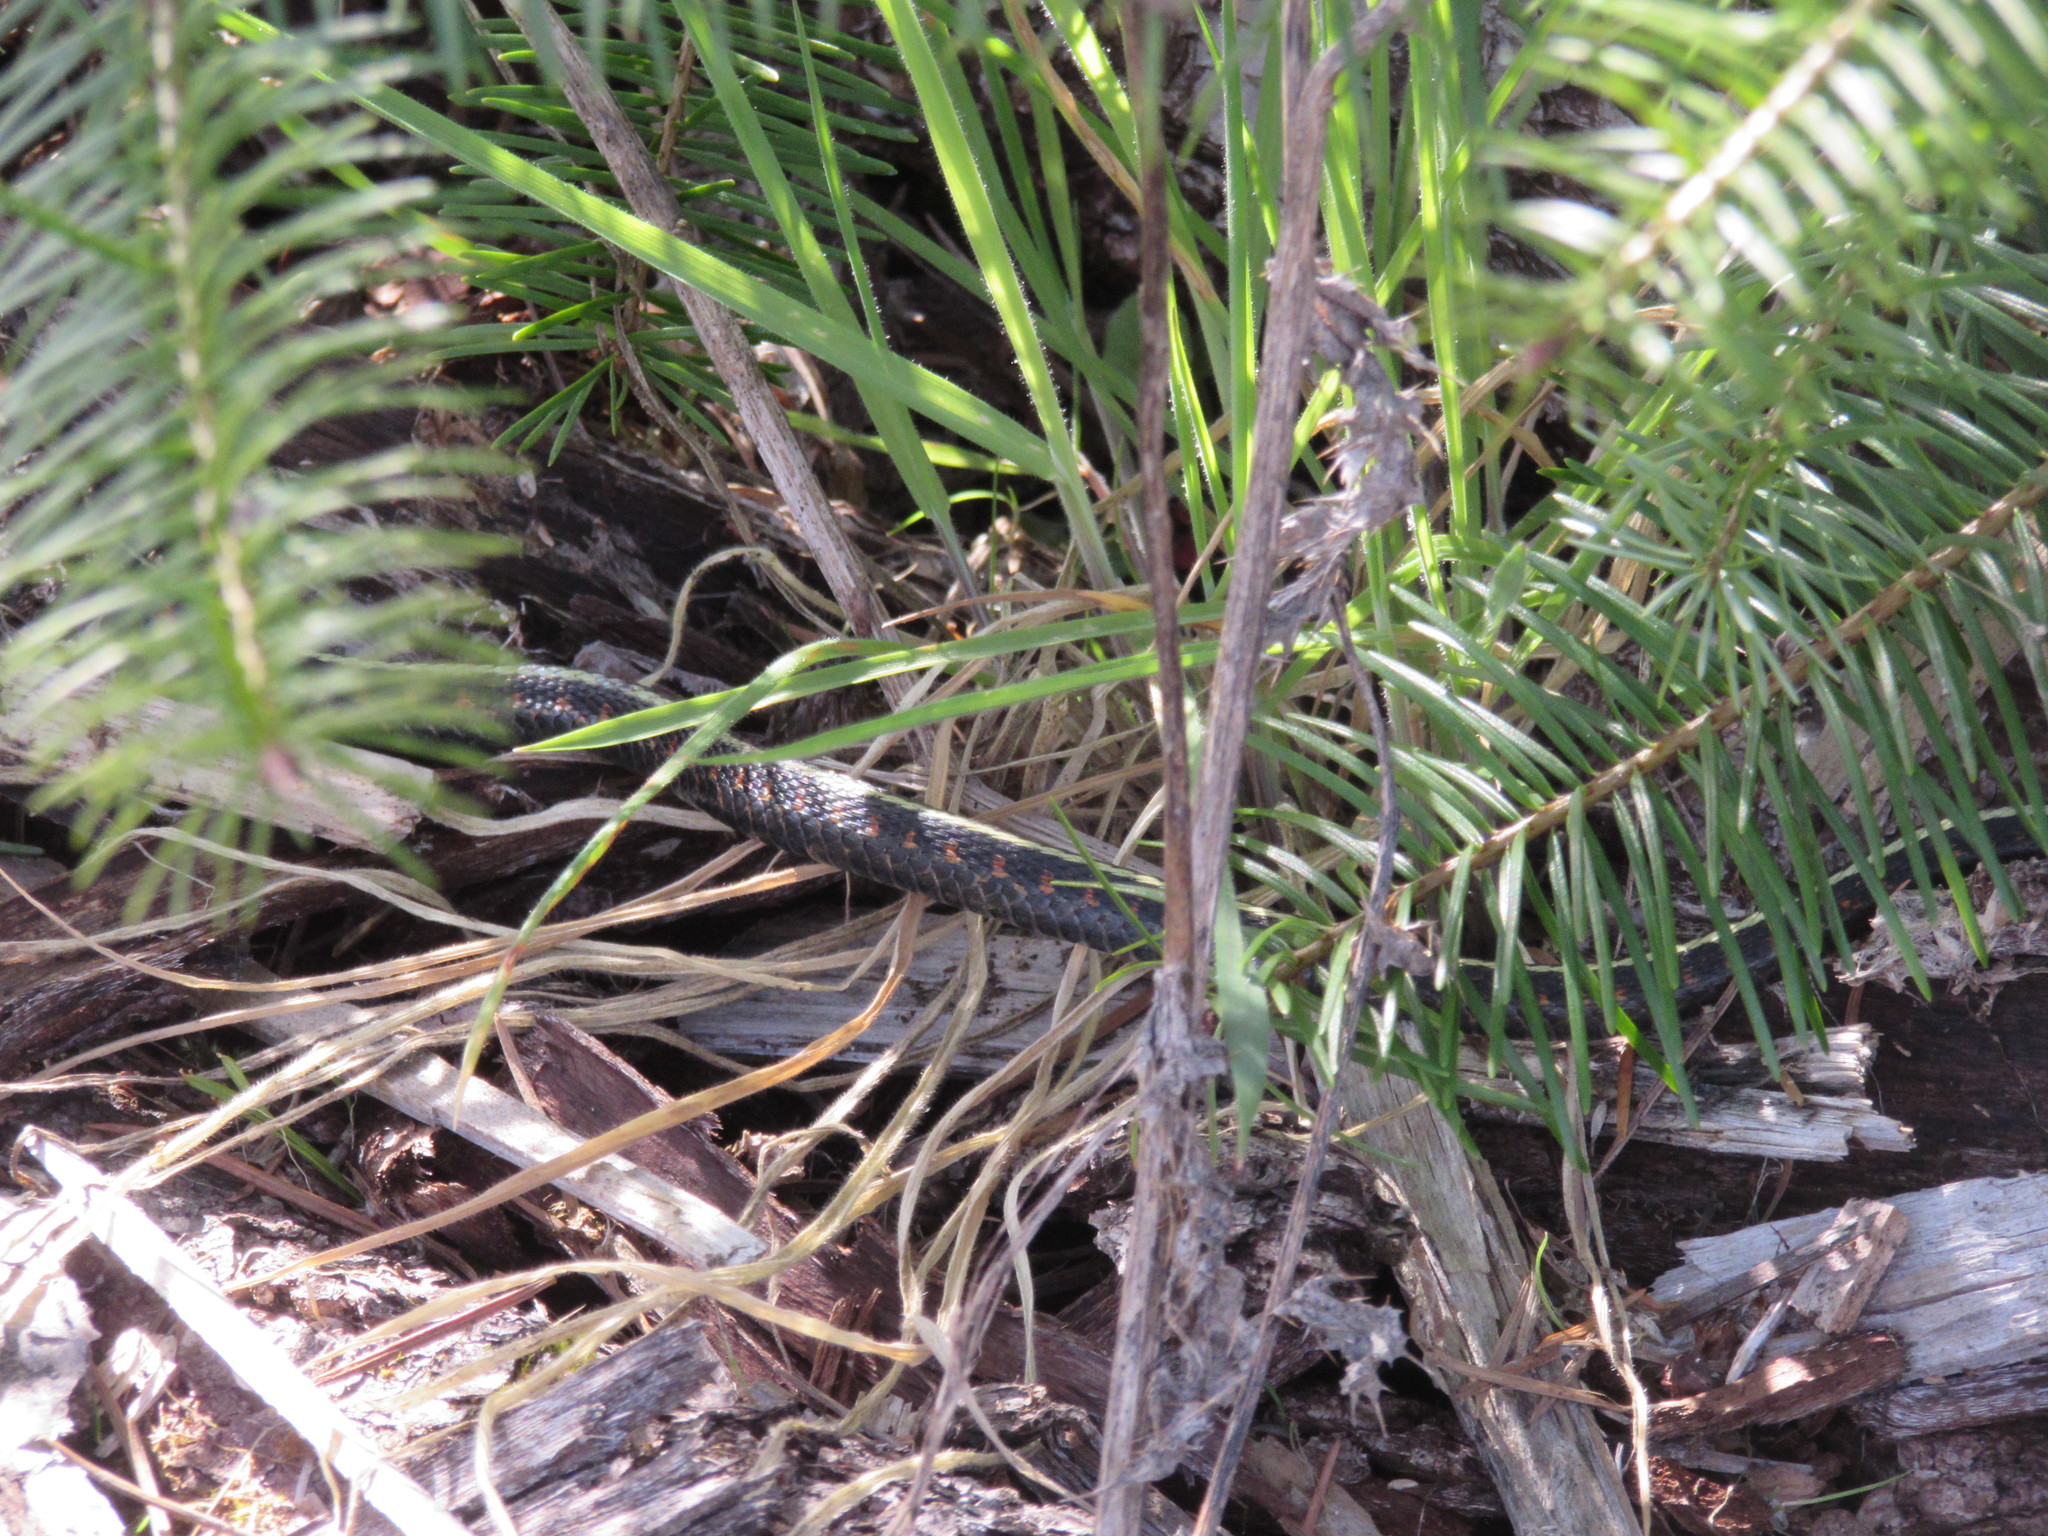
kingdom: Animalia
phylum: Chordata
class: Squamata
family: Colubridae
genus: Thamnophis
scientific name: Thamnophis sirtalis
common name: Common garter snake
